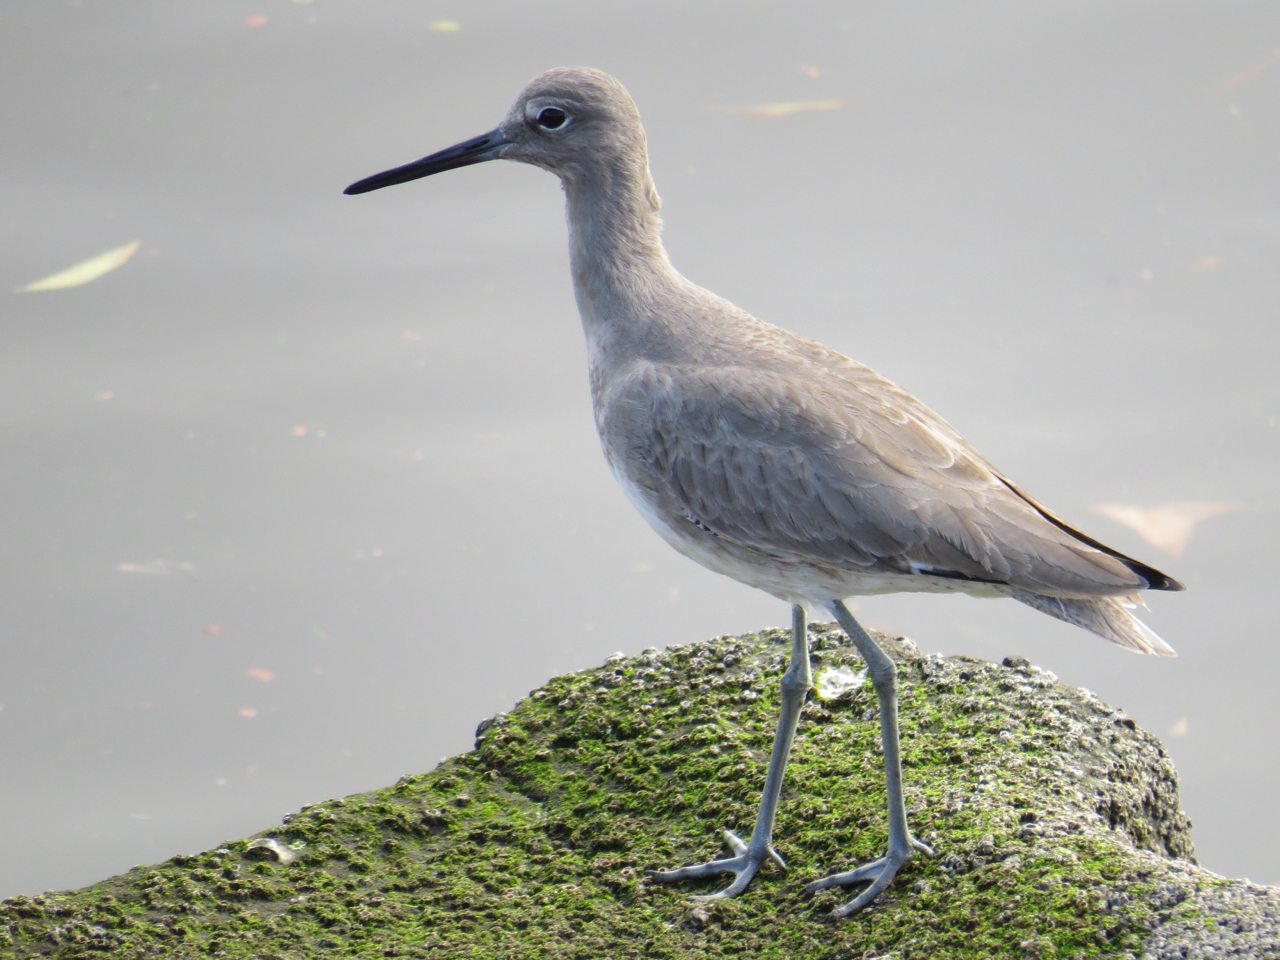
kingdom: Animalia
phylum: Chordata
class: Aves
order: Charadriiformes
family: Scolopacidae
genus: Tringa
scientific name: Tringa semipalmata
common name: Willet
